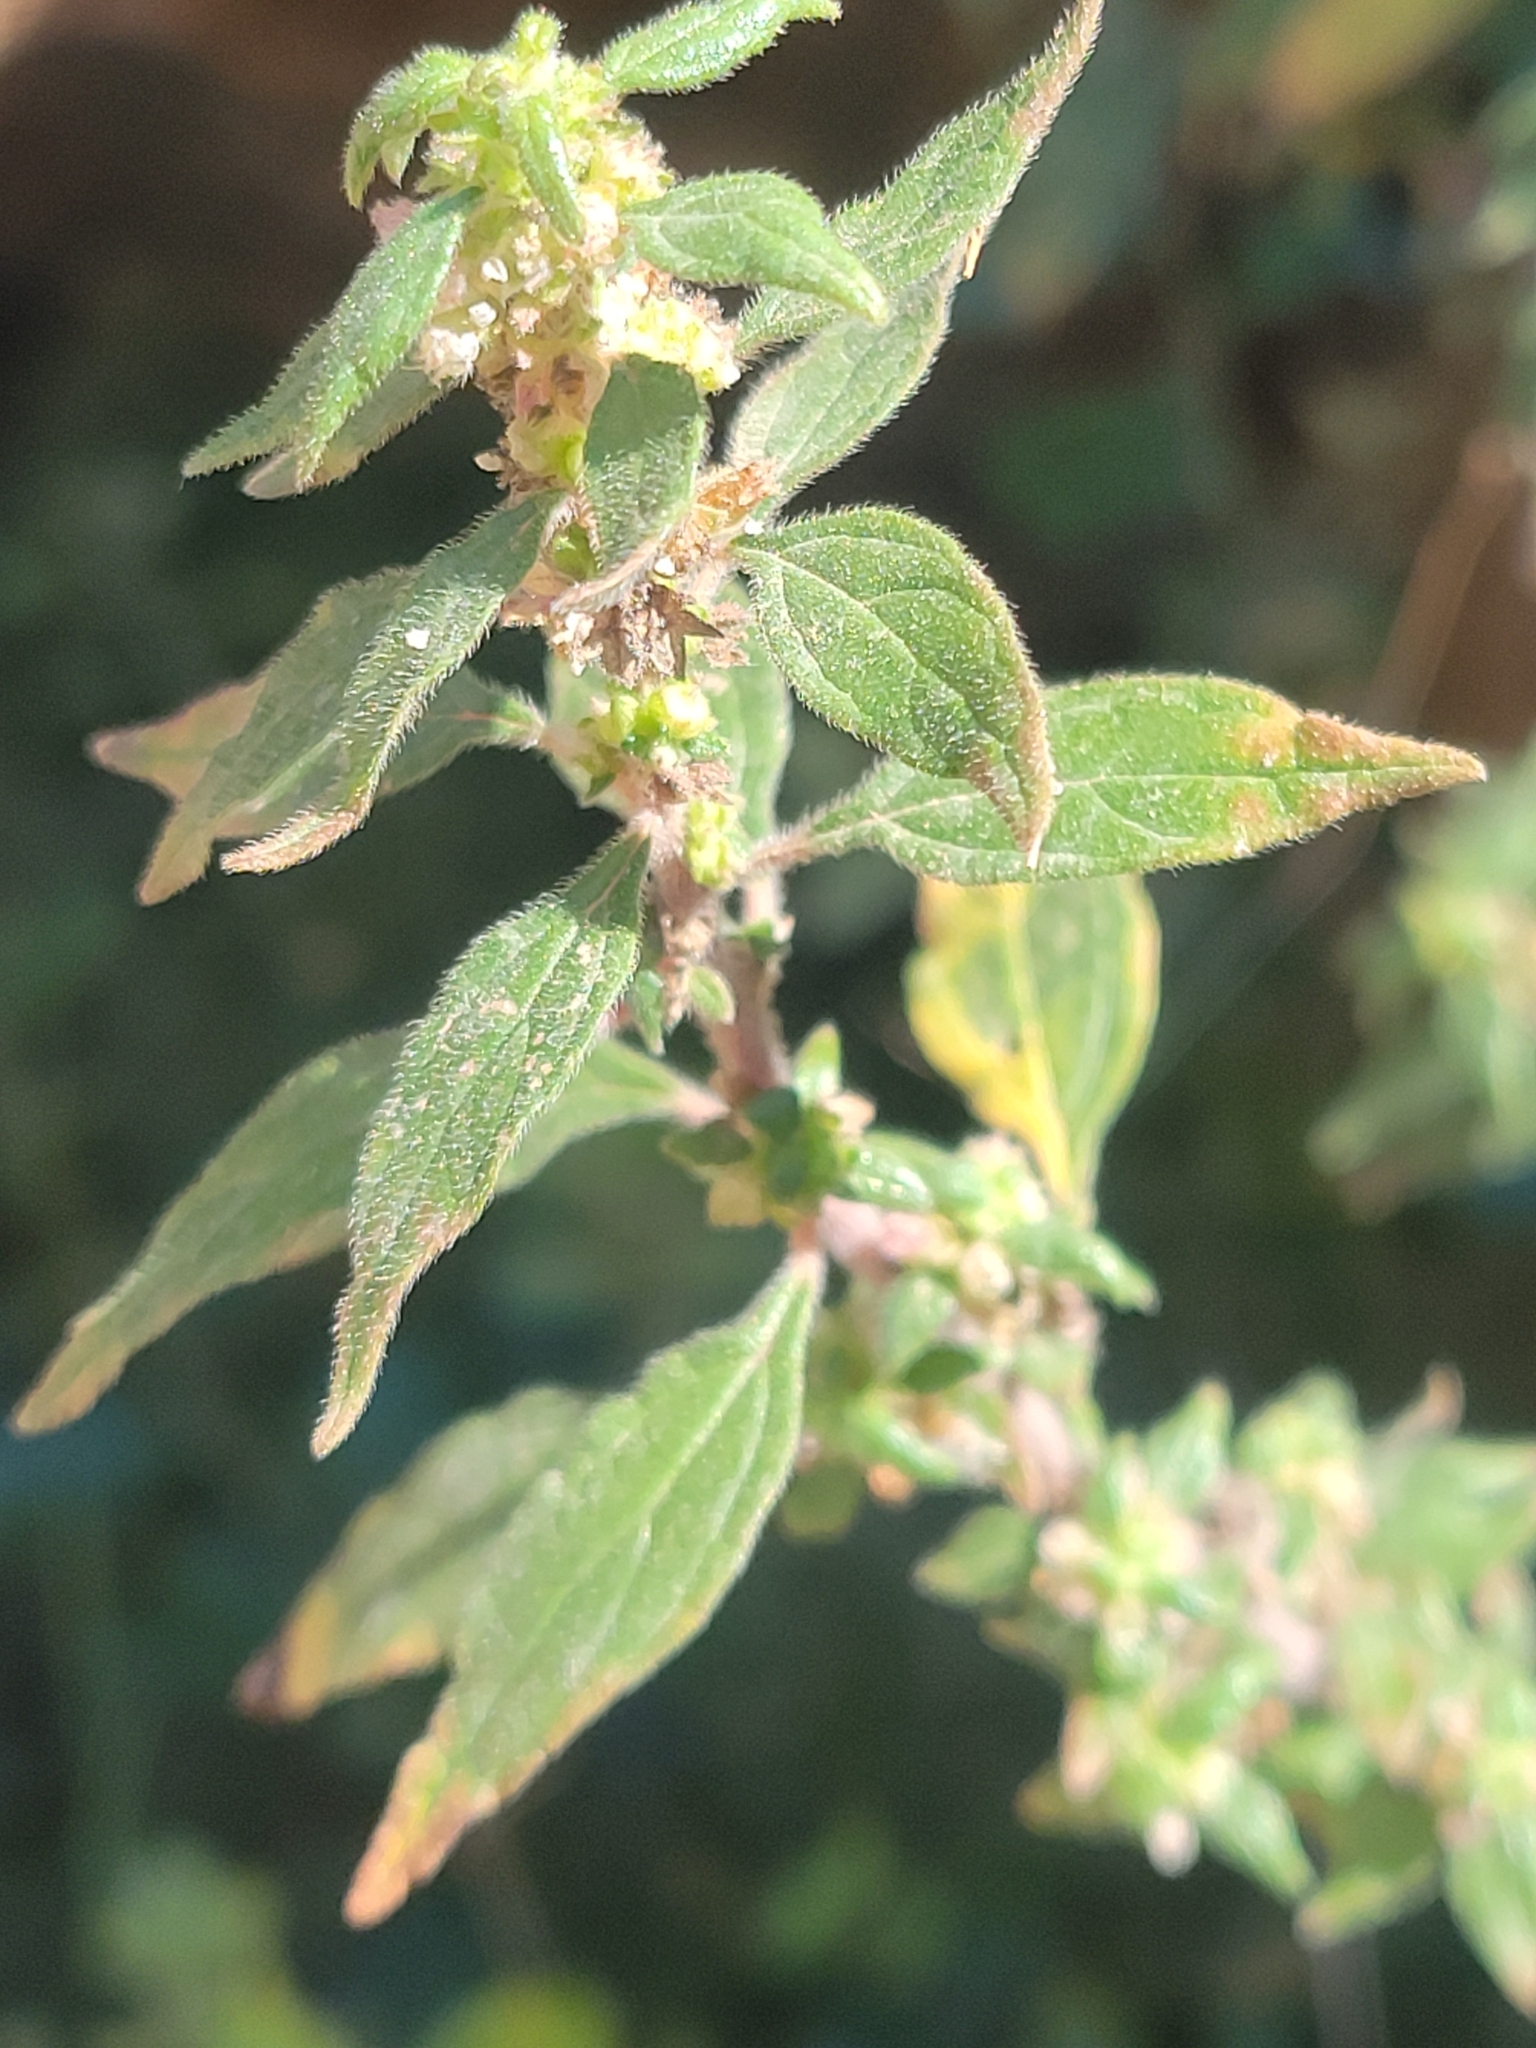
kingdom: Plantae
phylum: Tracheophyta
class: Magnoliopsida
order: Rosales
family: Urticaceae
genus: Parietaria
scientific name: Parietaria judaica
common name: Pellitory-of-the-wall
